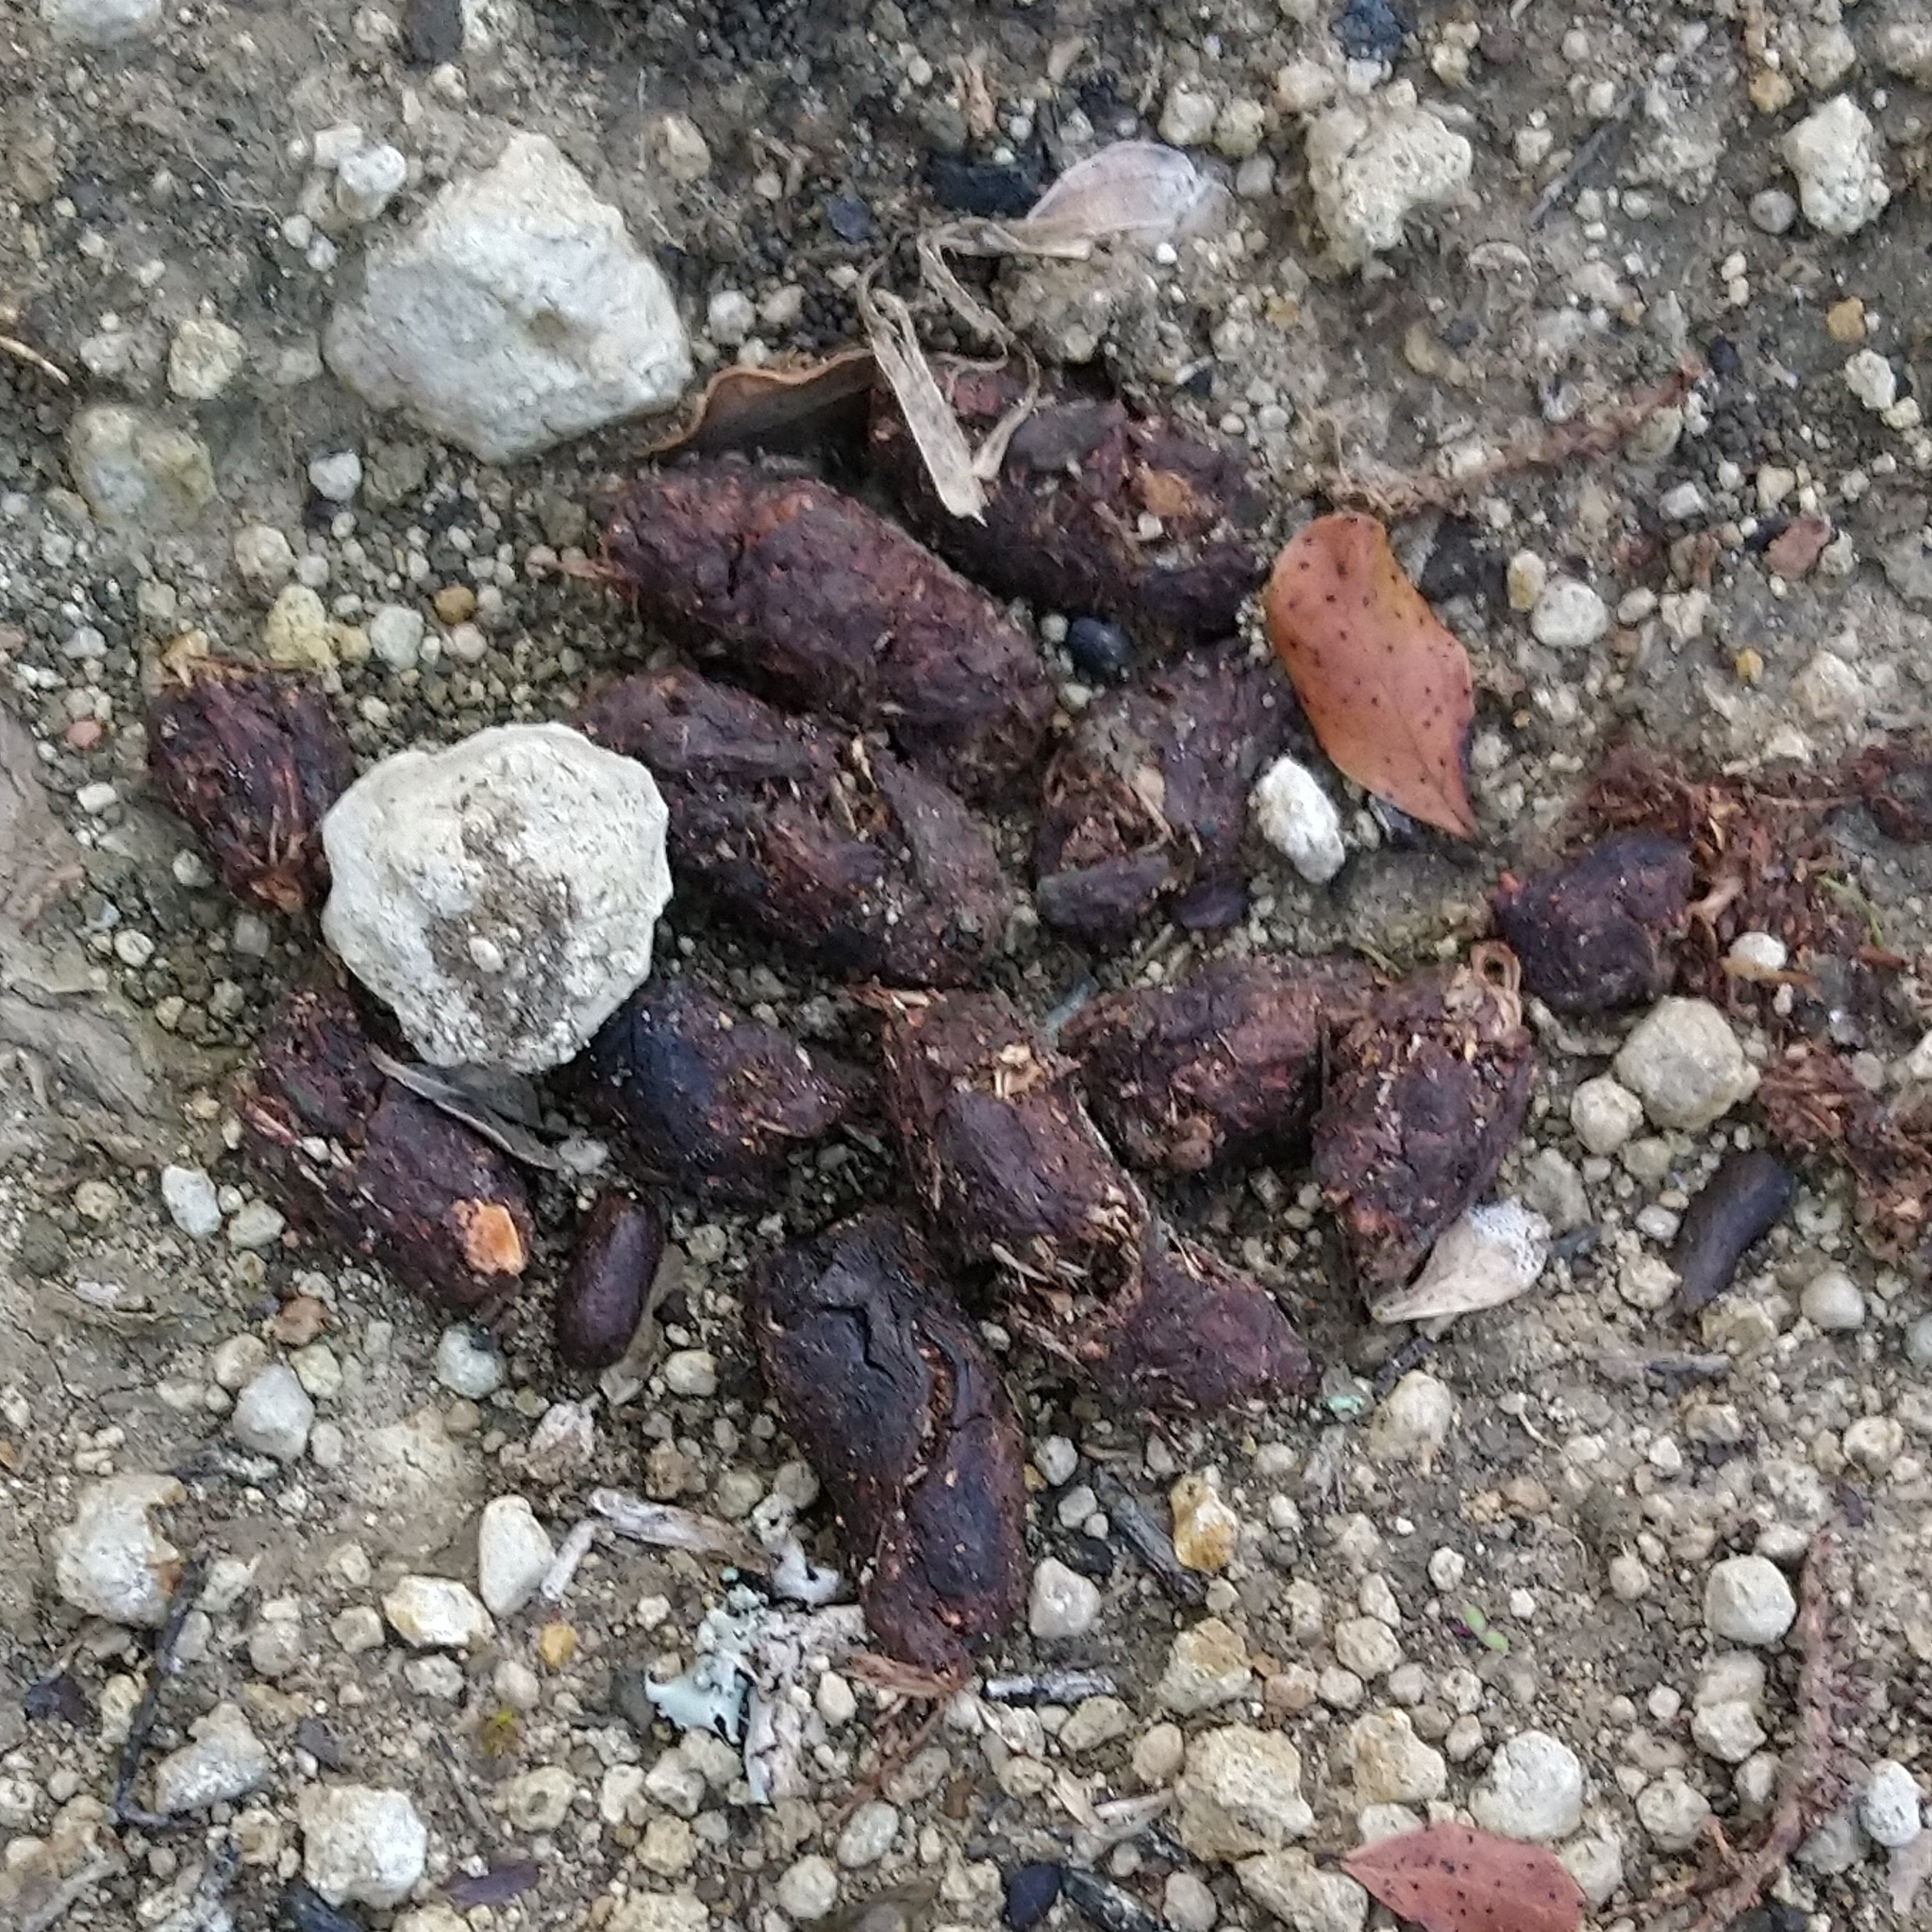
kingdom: Animalia
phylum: Chordata
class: Mammalia
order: Rodentia
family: Hystricidae
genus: Hystrix
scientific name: Hystrix africaeaustralis
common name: Cape porcupine
